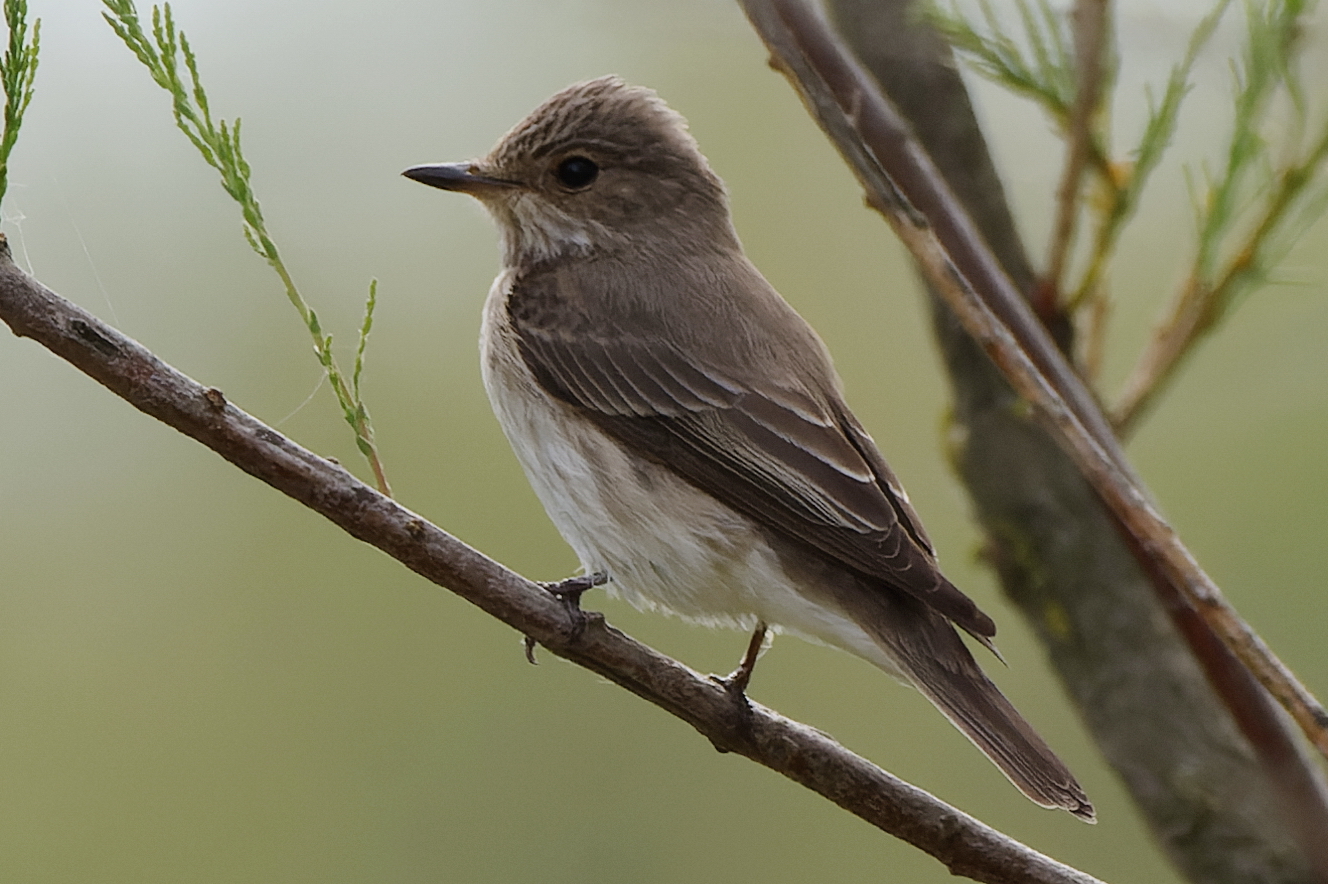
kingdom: Animalia
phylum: Chordata
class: Aves
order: Passeriformes
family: Muscicapidae
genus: Muscicapa
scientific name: Muscicapa striata
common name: Spotted flycatcher
